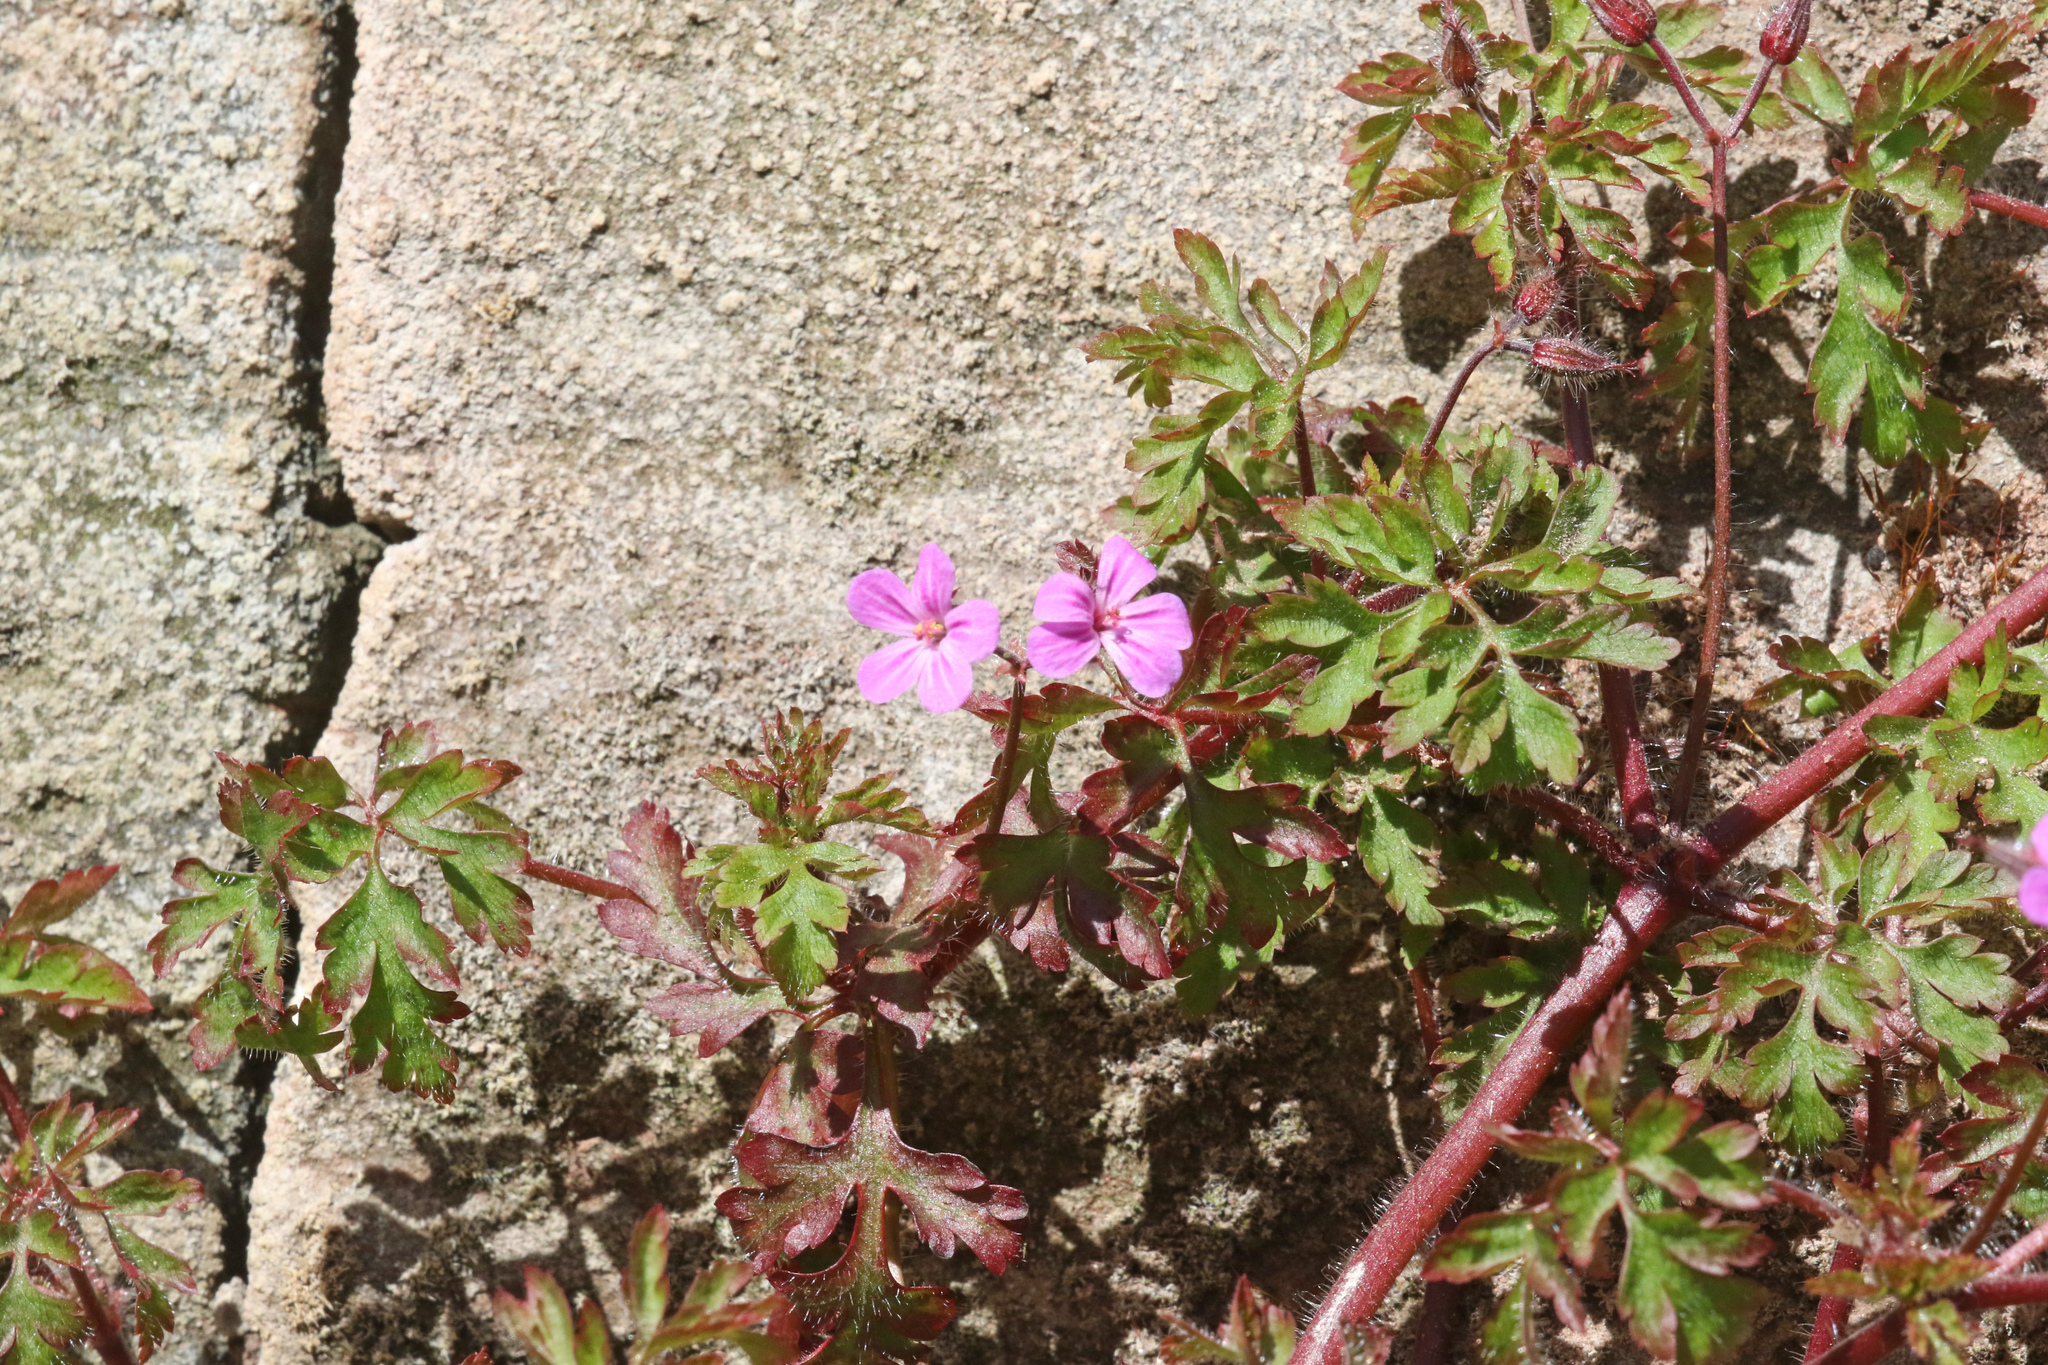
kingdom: Plantae
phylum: Tracheophyta
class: Magnoliopsida
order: Geraniales
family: Geraniaceae
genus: Geranium
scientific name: Geranium robertianum
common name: Herb-robert
